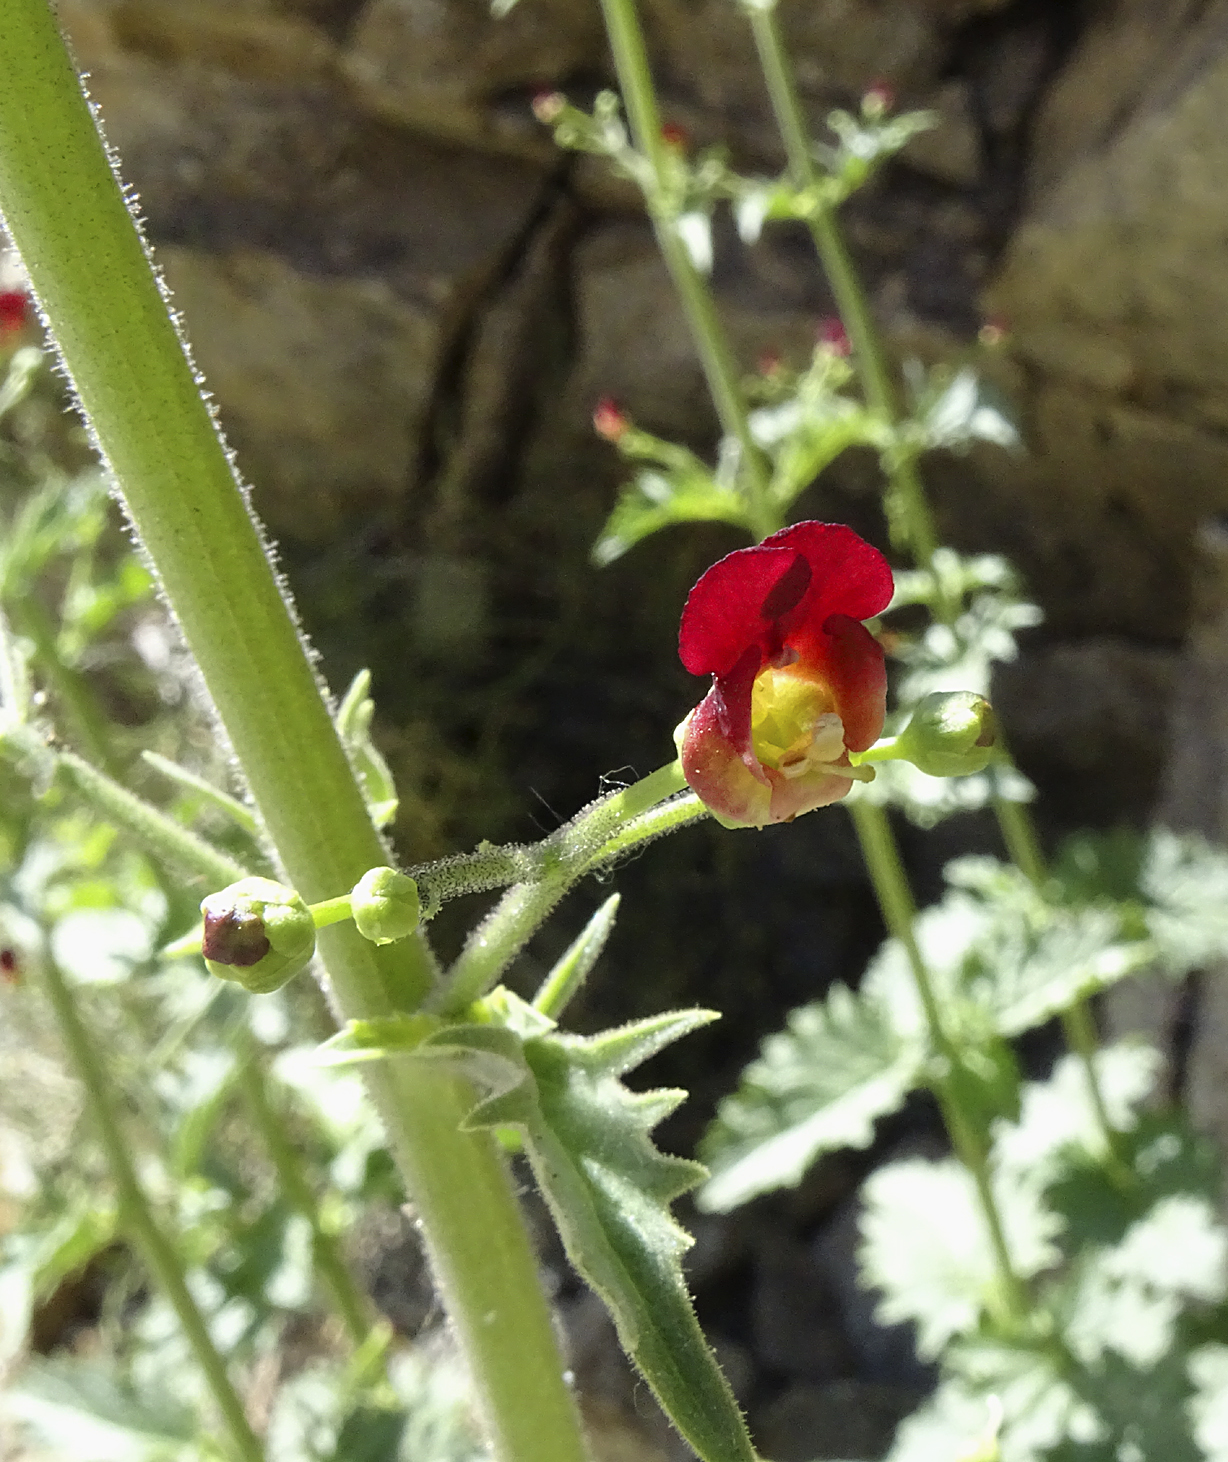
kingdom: Plantae
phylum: Tracheophyta
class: Magnoliopsida
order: Lamiales
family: Scrophulariaceae
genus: Scrophularia
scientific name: Scrophularia californica
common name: California figwort
